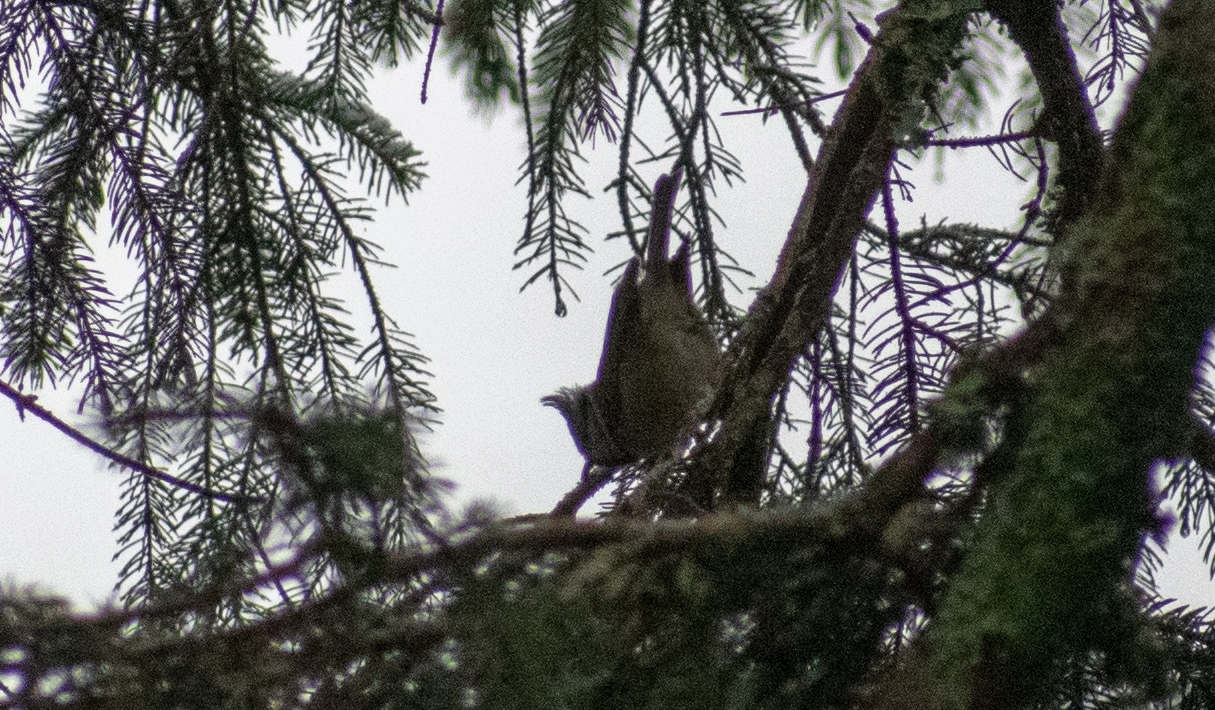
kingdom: Animalia
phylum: Chordata
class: Aves
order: Passeriformes
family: Paridae
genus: Lophophanes
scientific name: Lophophanes cristatus
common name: European crested tit
